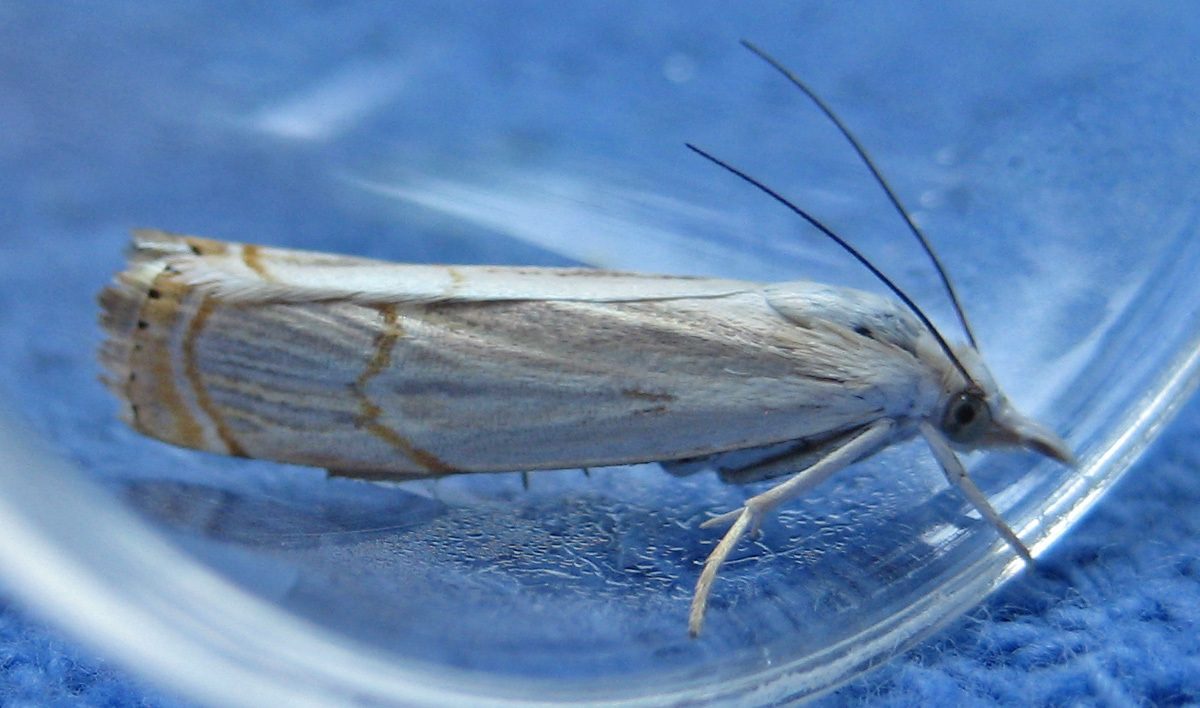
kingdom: Animalia
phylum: Arthropoda
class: Insecta
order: Lepidoptera
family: Crambidae
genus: Parapediasia
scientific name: Parapediasia decorellus
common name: Graceful grass-veneer
